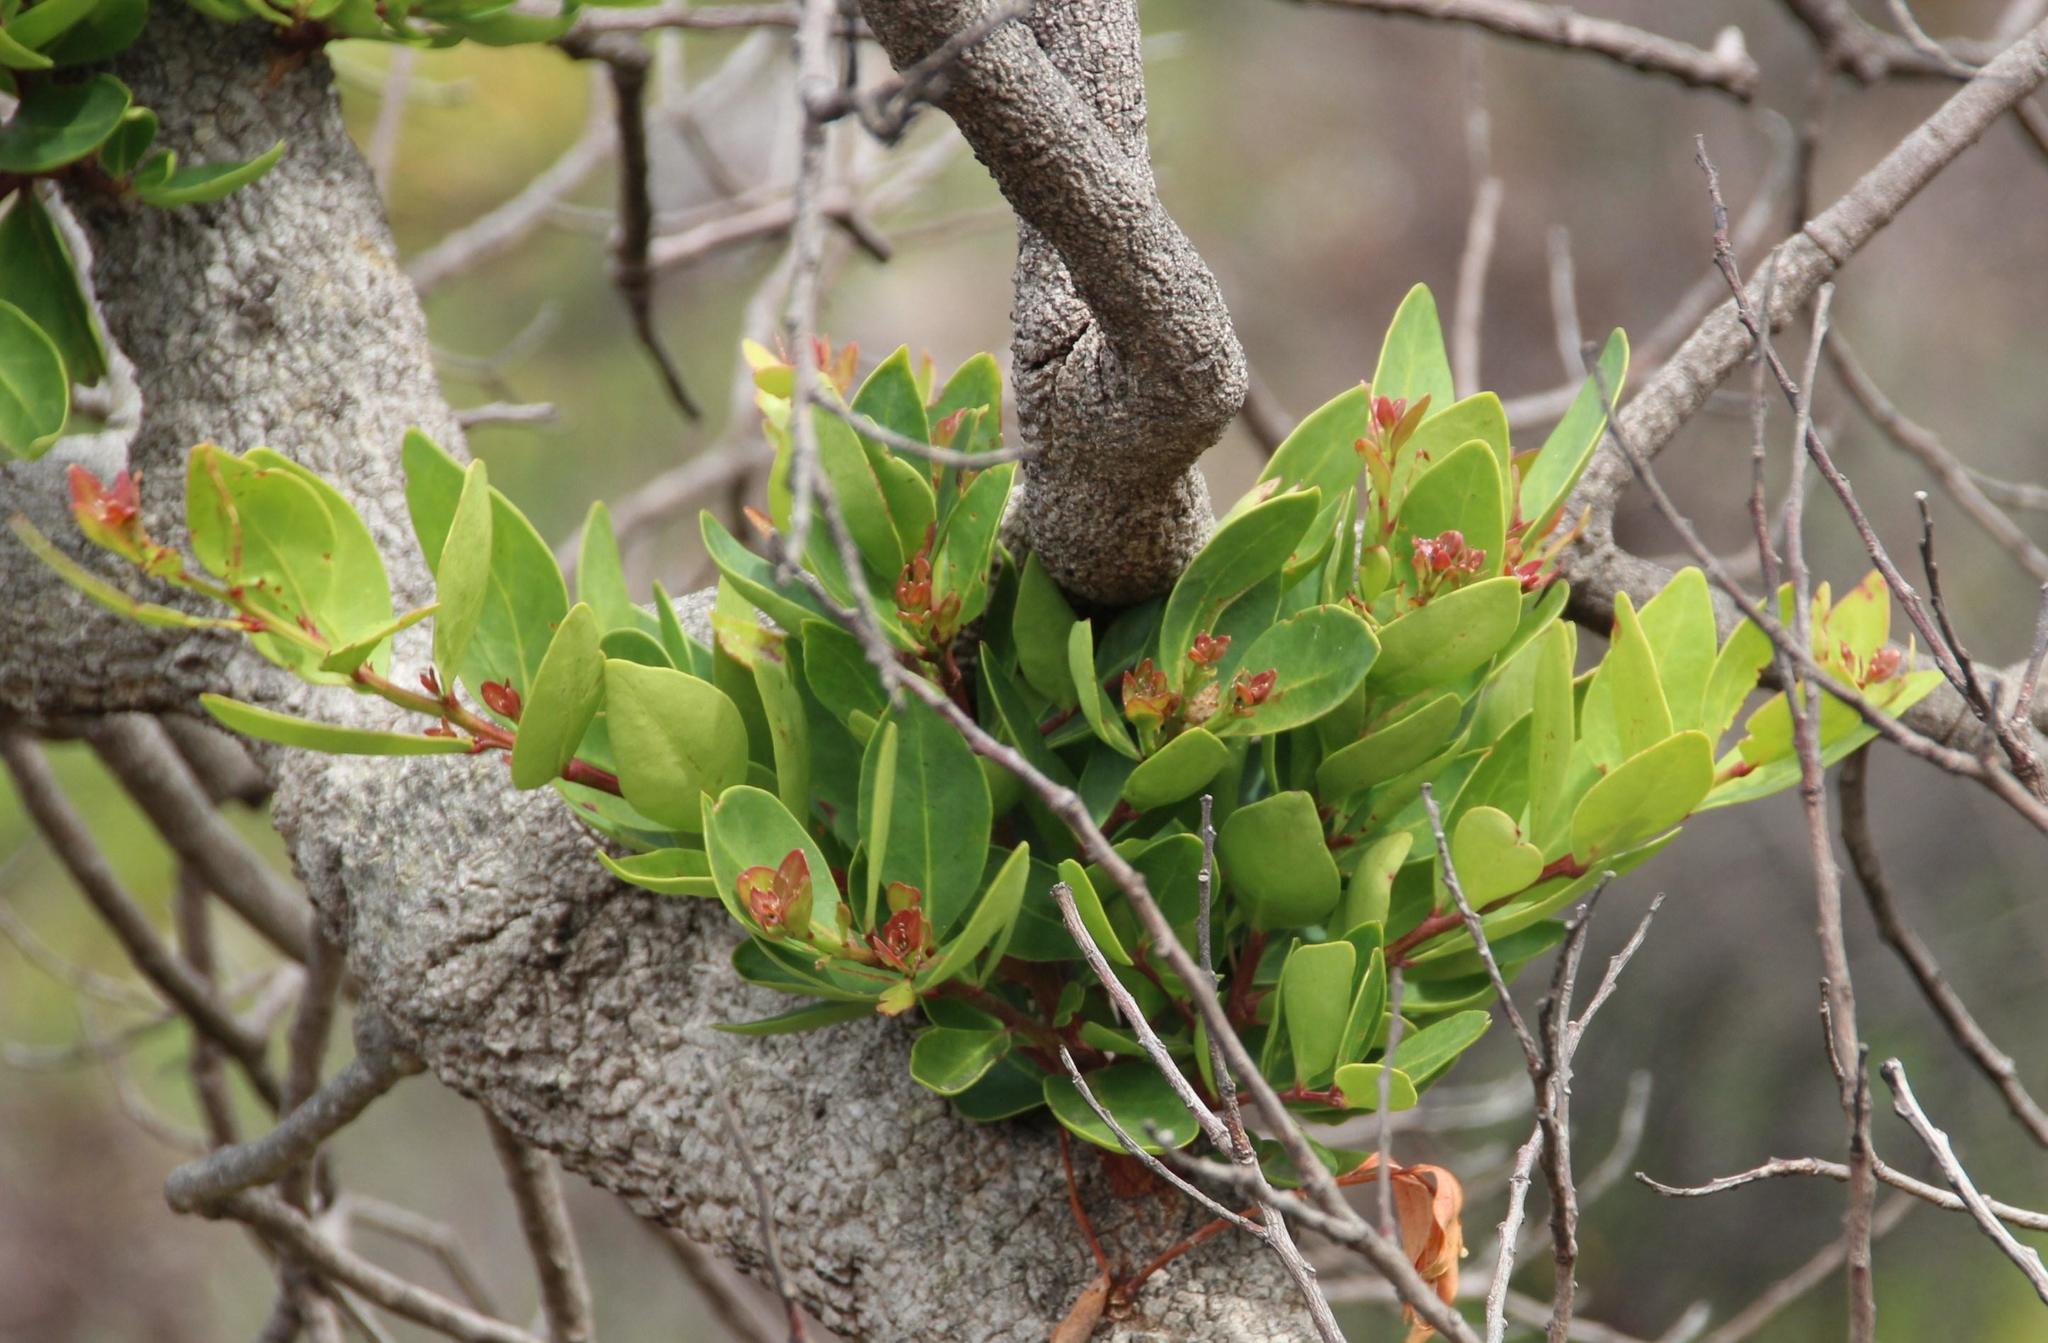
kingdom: Plantae
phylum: Tracheophyta
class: Magnoliopsida
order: Celastrales
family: Celastraceae
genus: Gymnosporia
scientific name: Gymnosporia laurina
